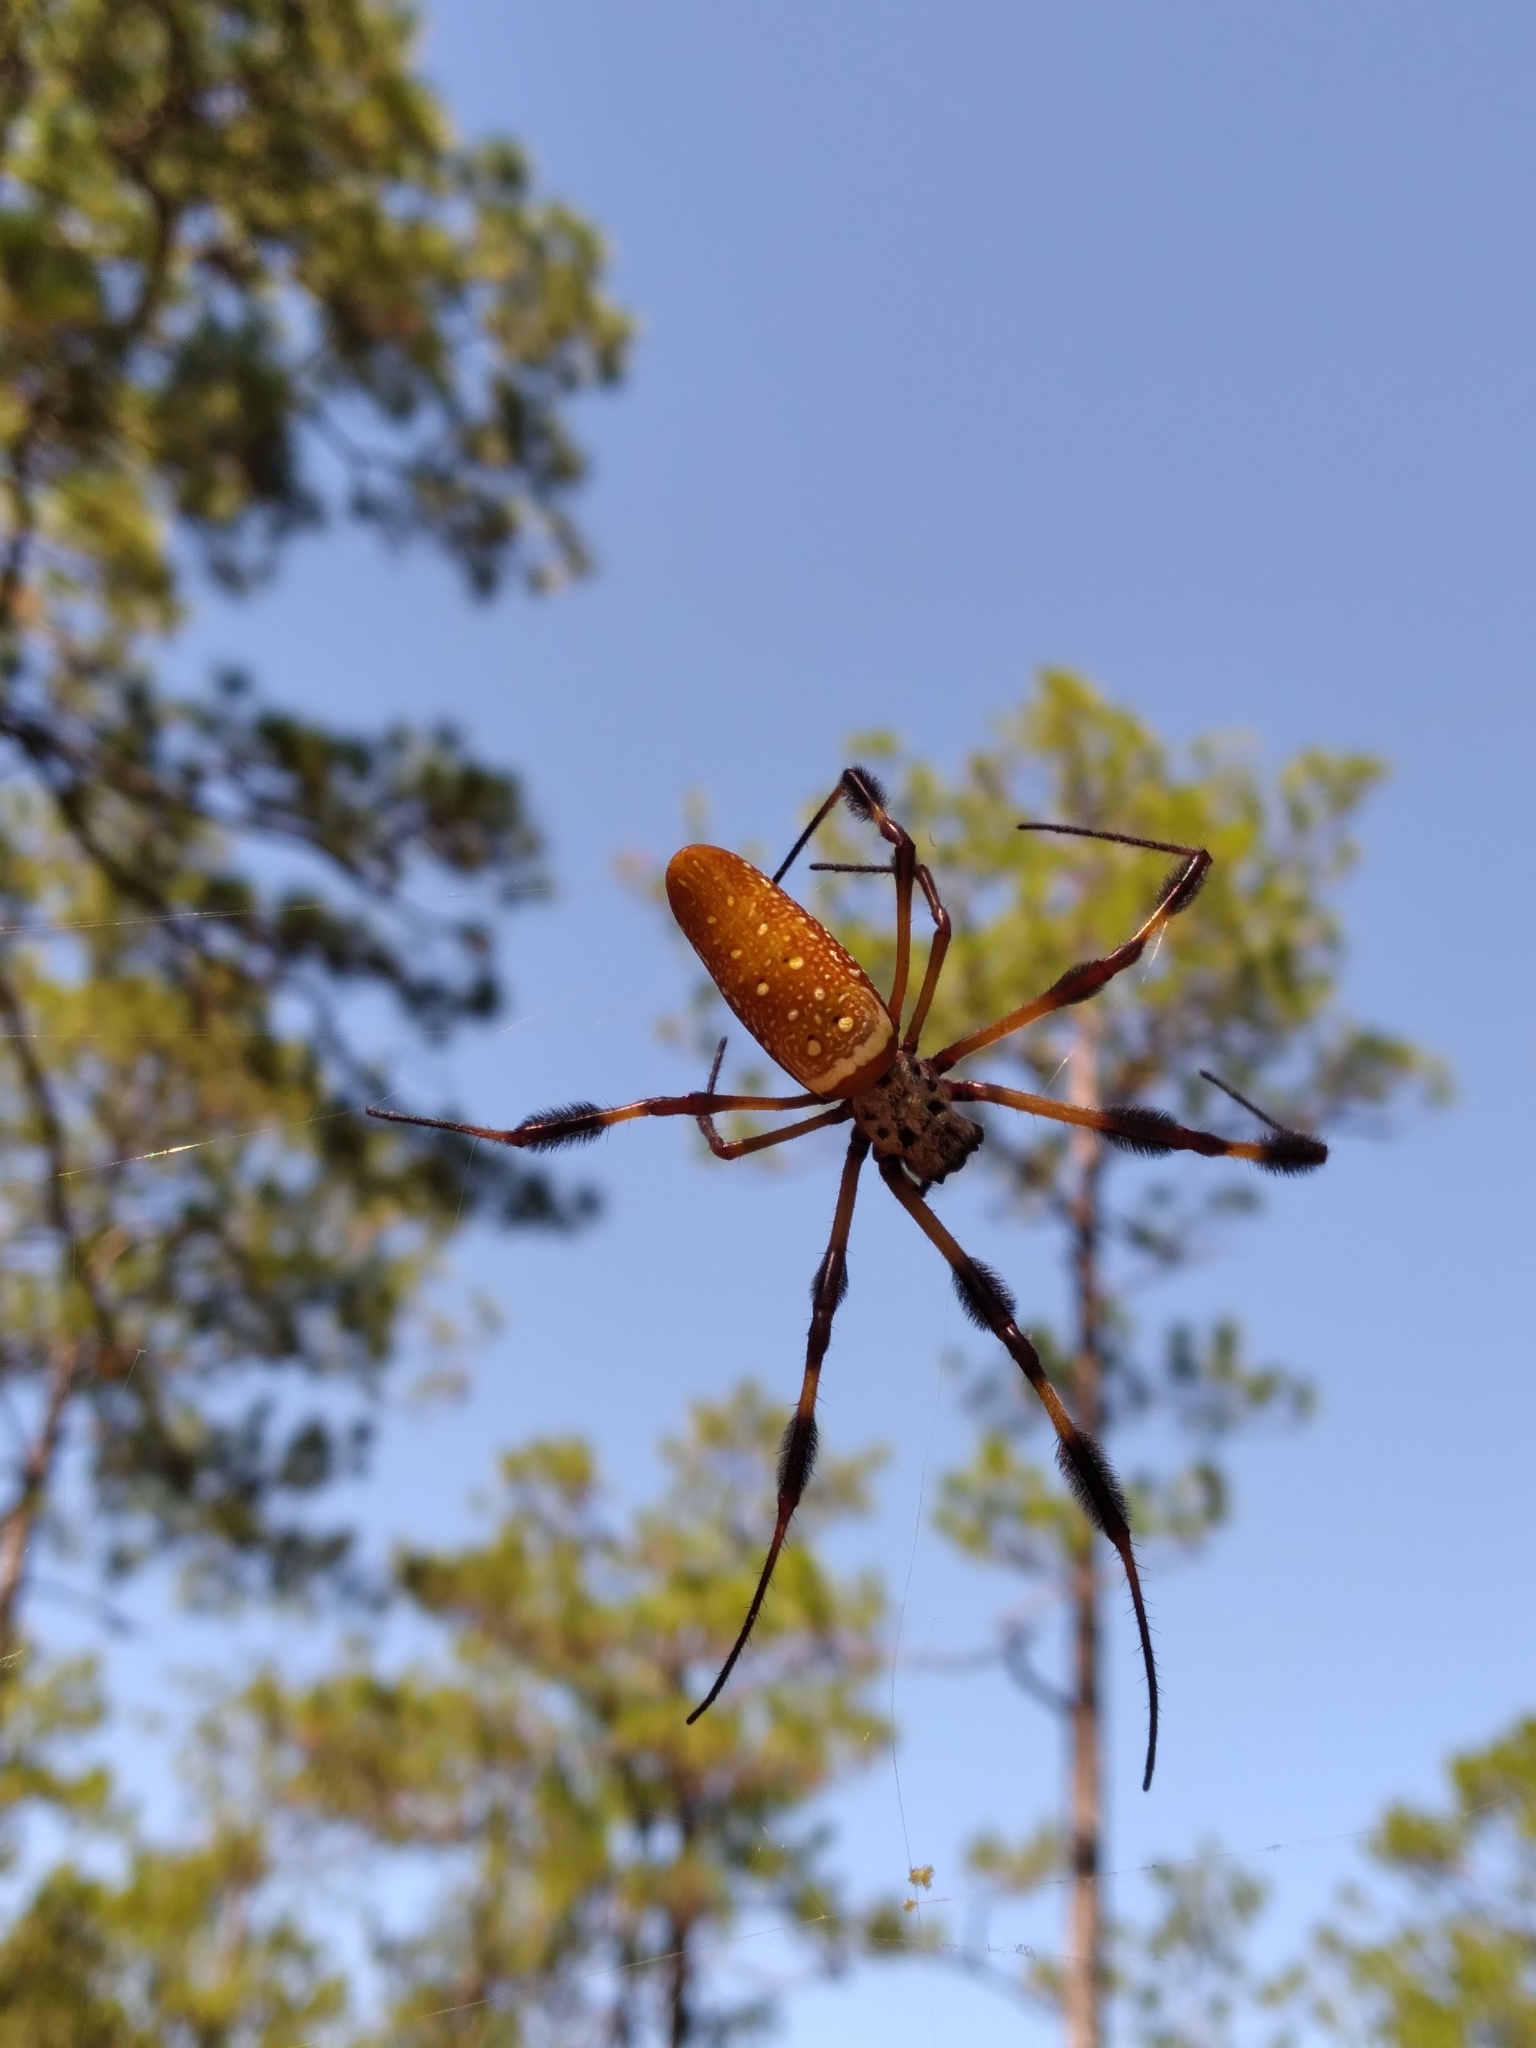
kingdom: Animalia
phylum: Arthropoda
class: Arachnida
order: Araneae
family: Araneidae
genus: Trichonephila
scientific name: Trichonephila clavipes
